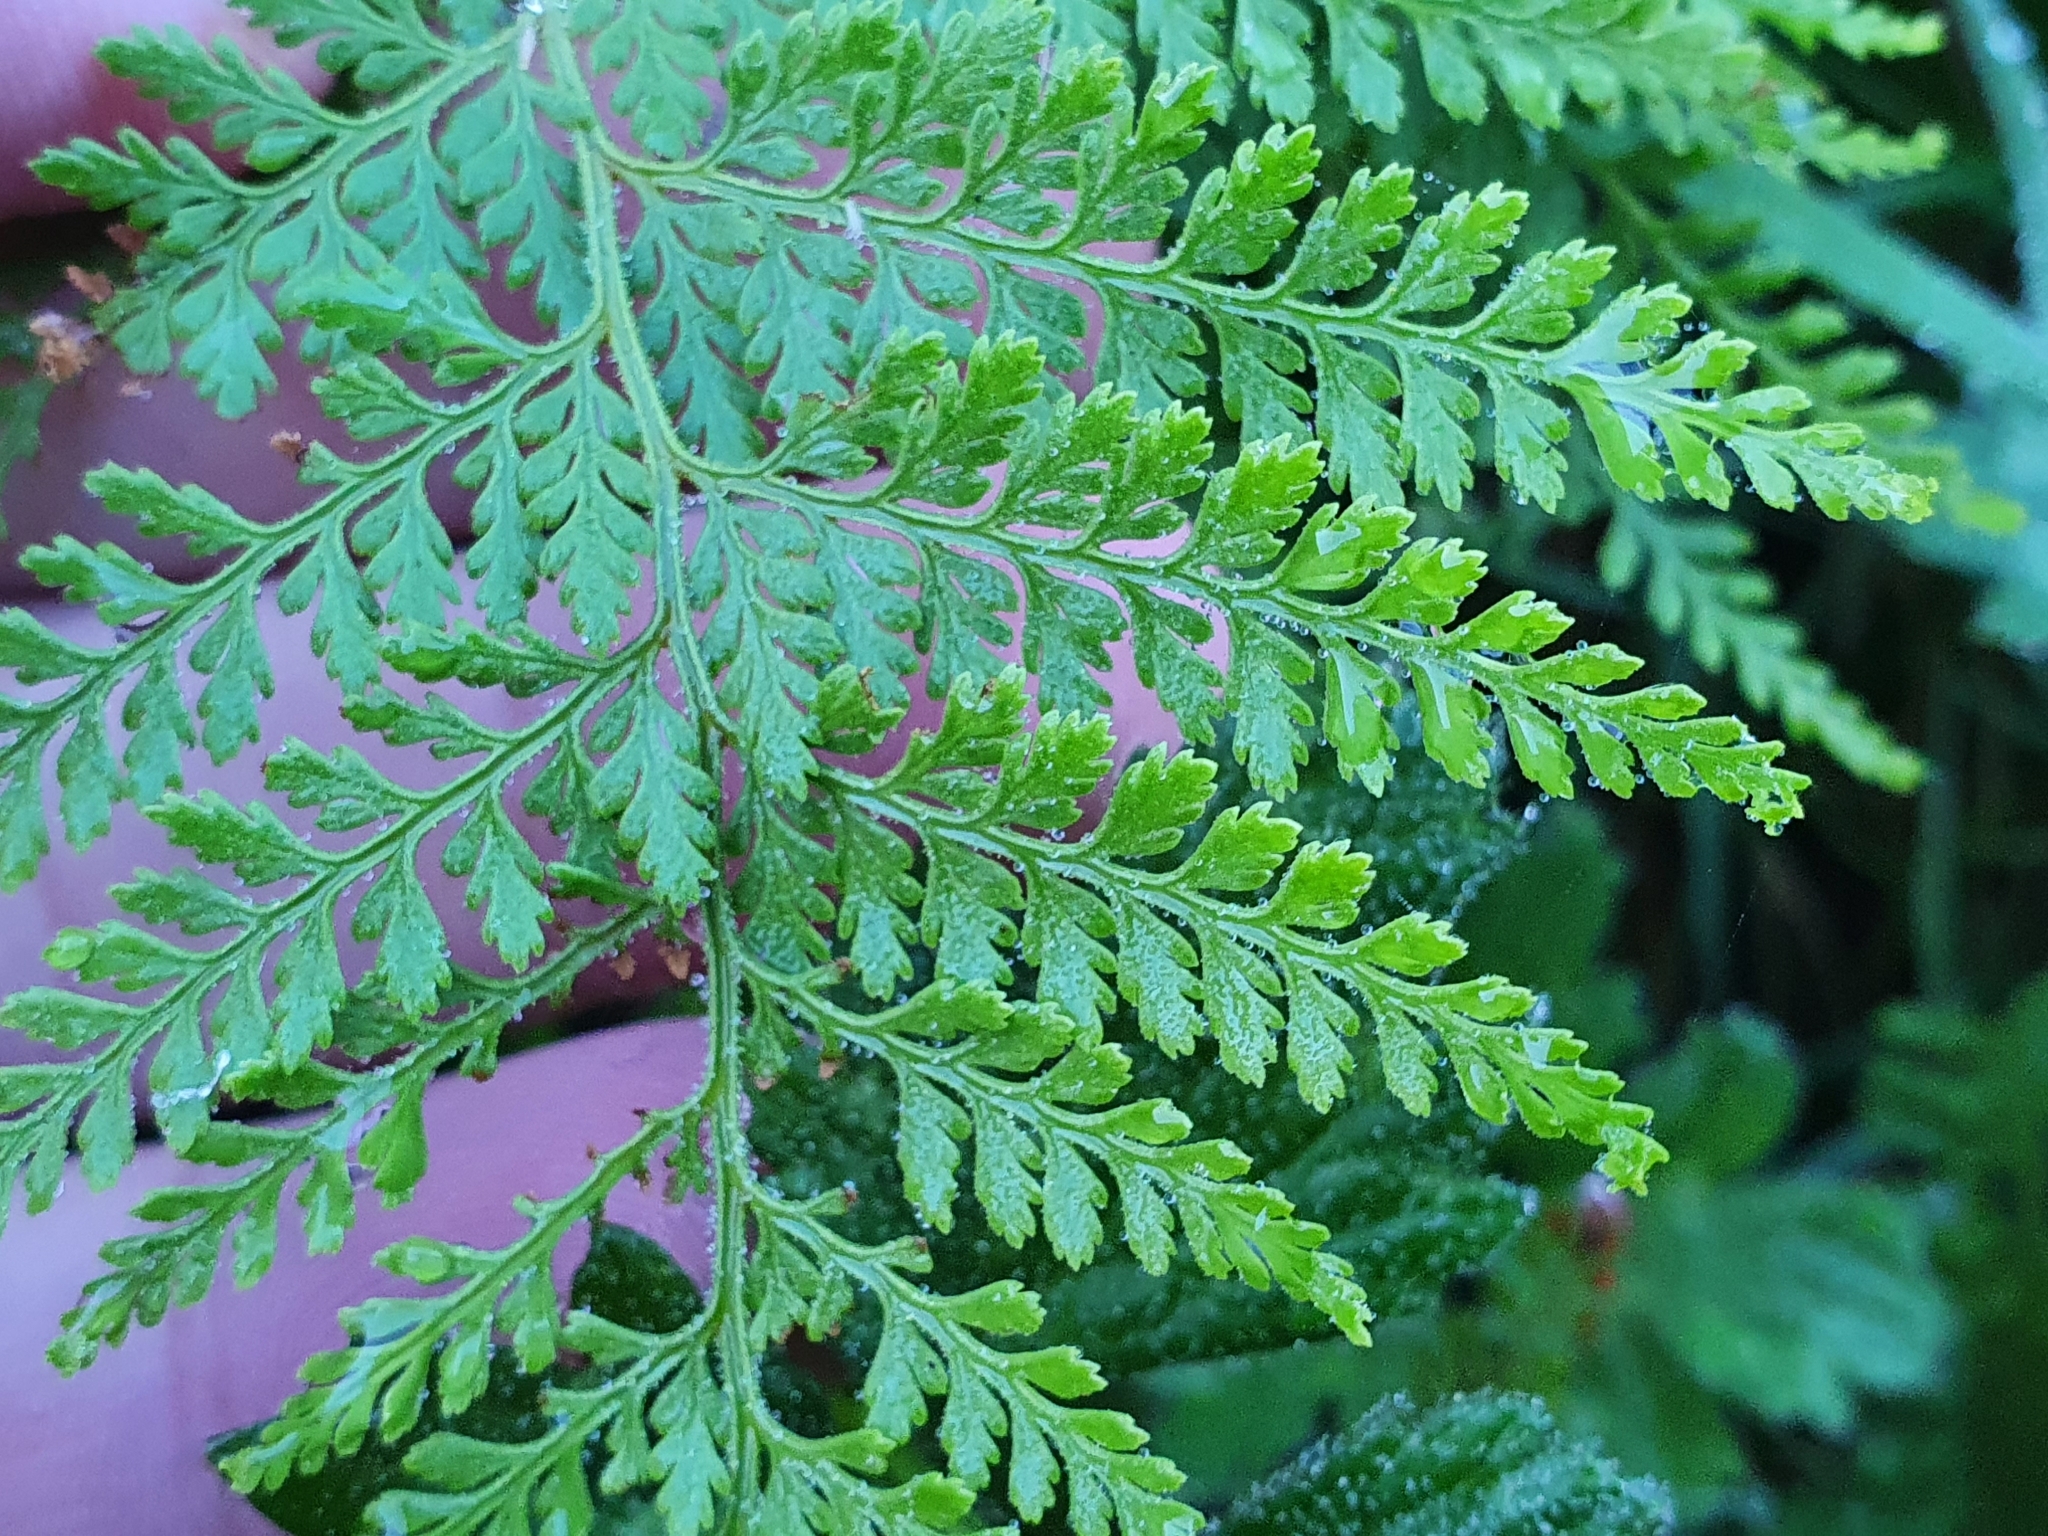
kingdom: Plantae
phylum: Tracheophyta
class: Polypodiopsida
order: Polypodiales
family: Dennstaedtiaceae
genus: Paesia
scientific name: Paesia scaberula
